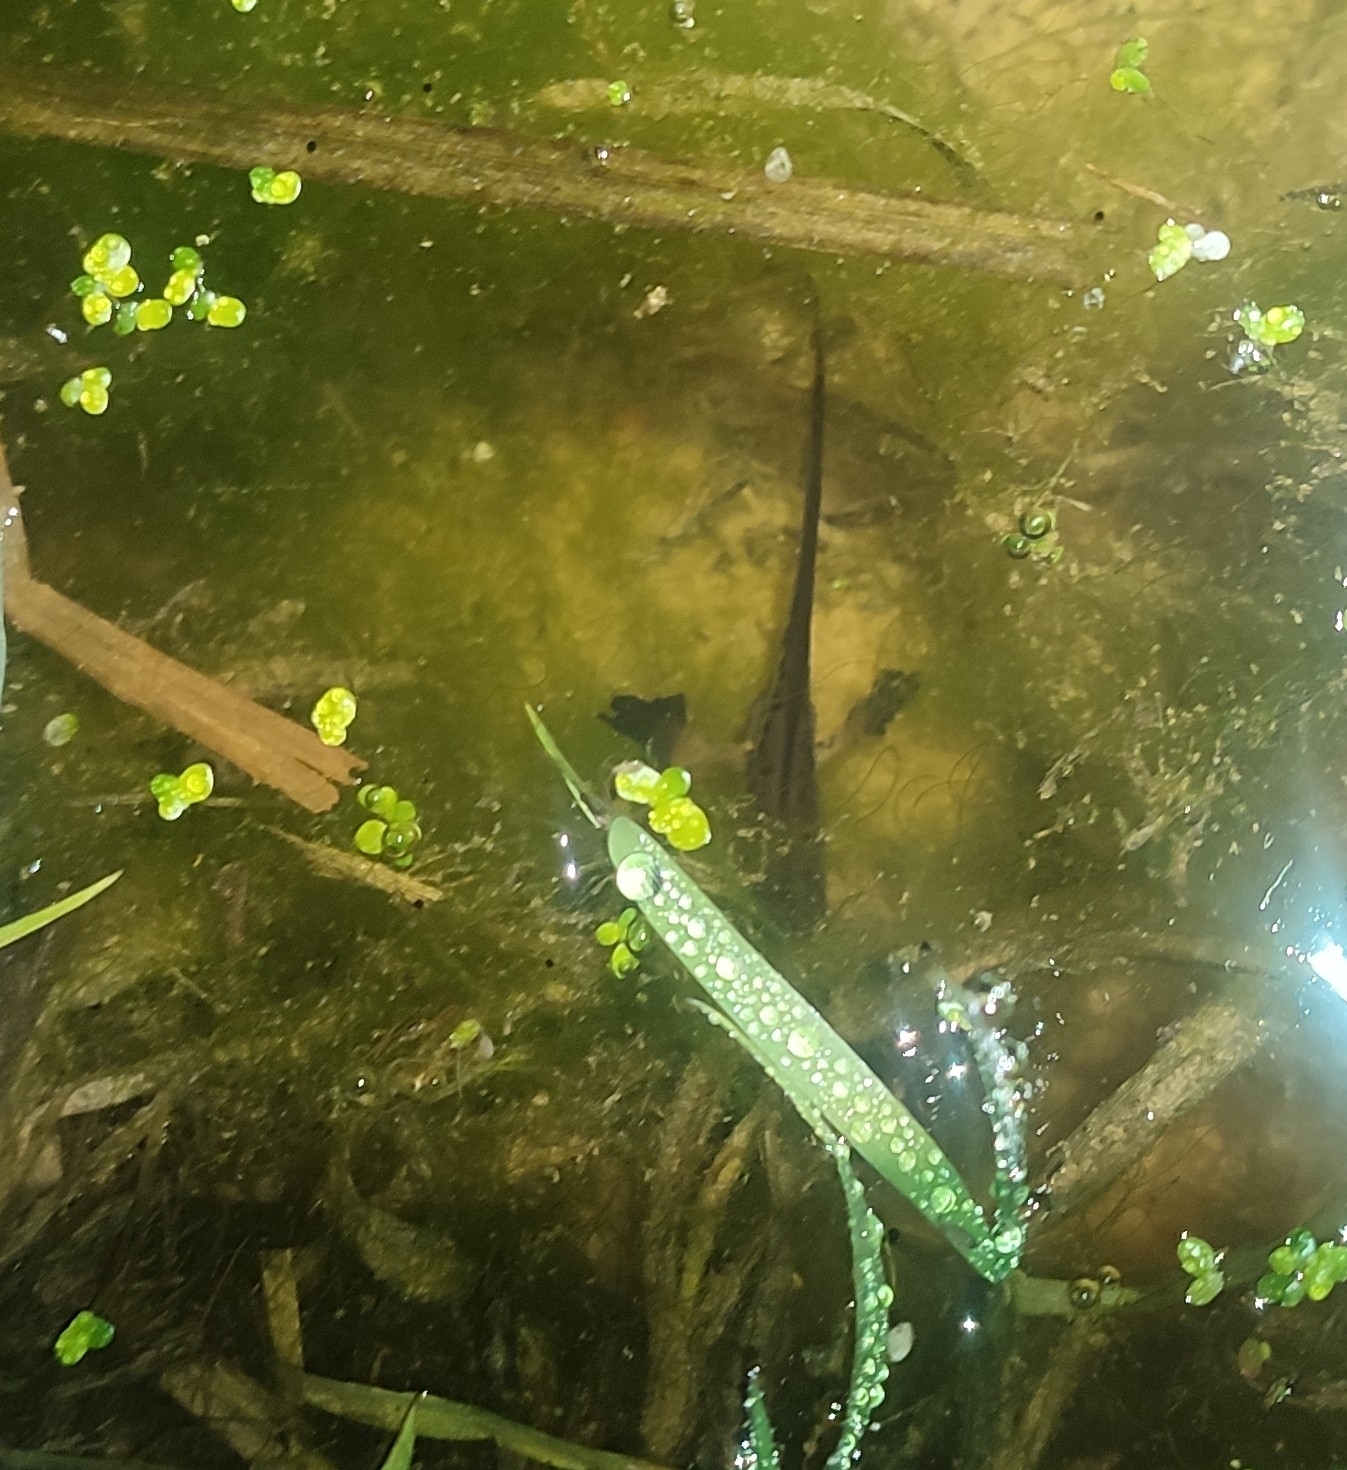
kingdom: Animalia
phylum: Chordata
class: Amphibia
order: Caudata
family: Salamandridae
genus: Lissotriton
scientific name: Lissotriton helveticus
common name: Palmate newt
